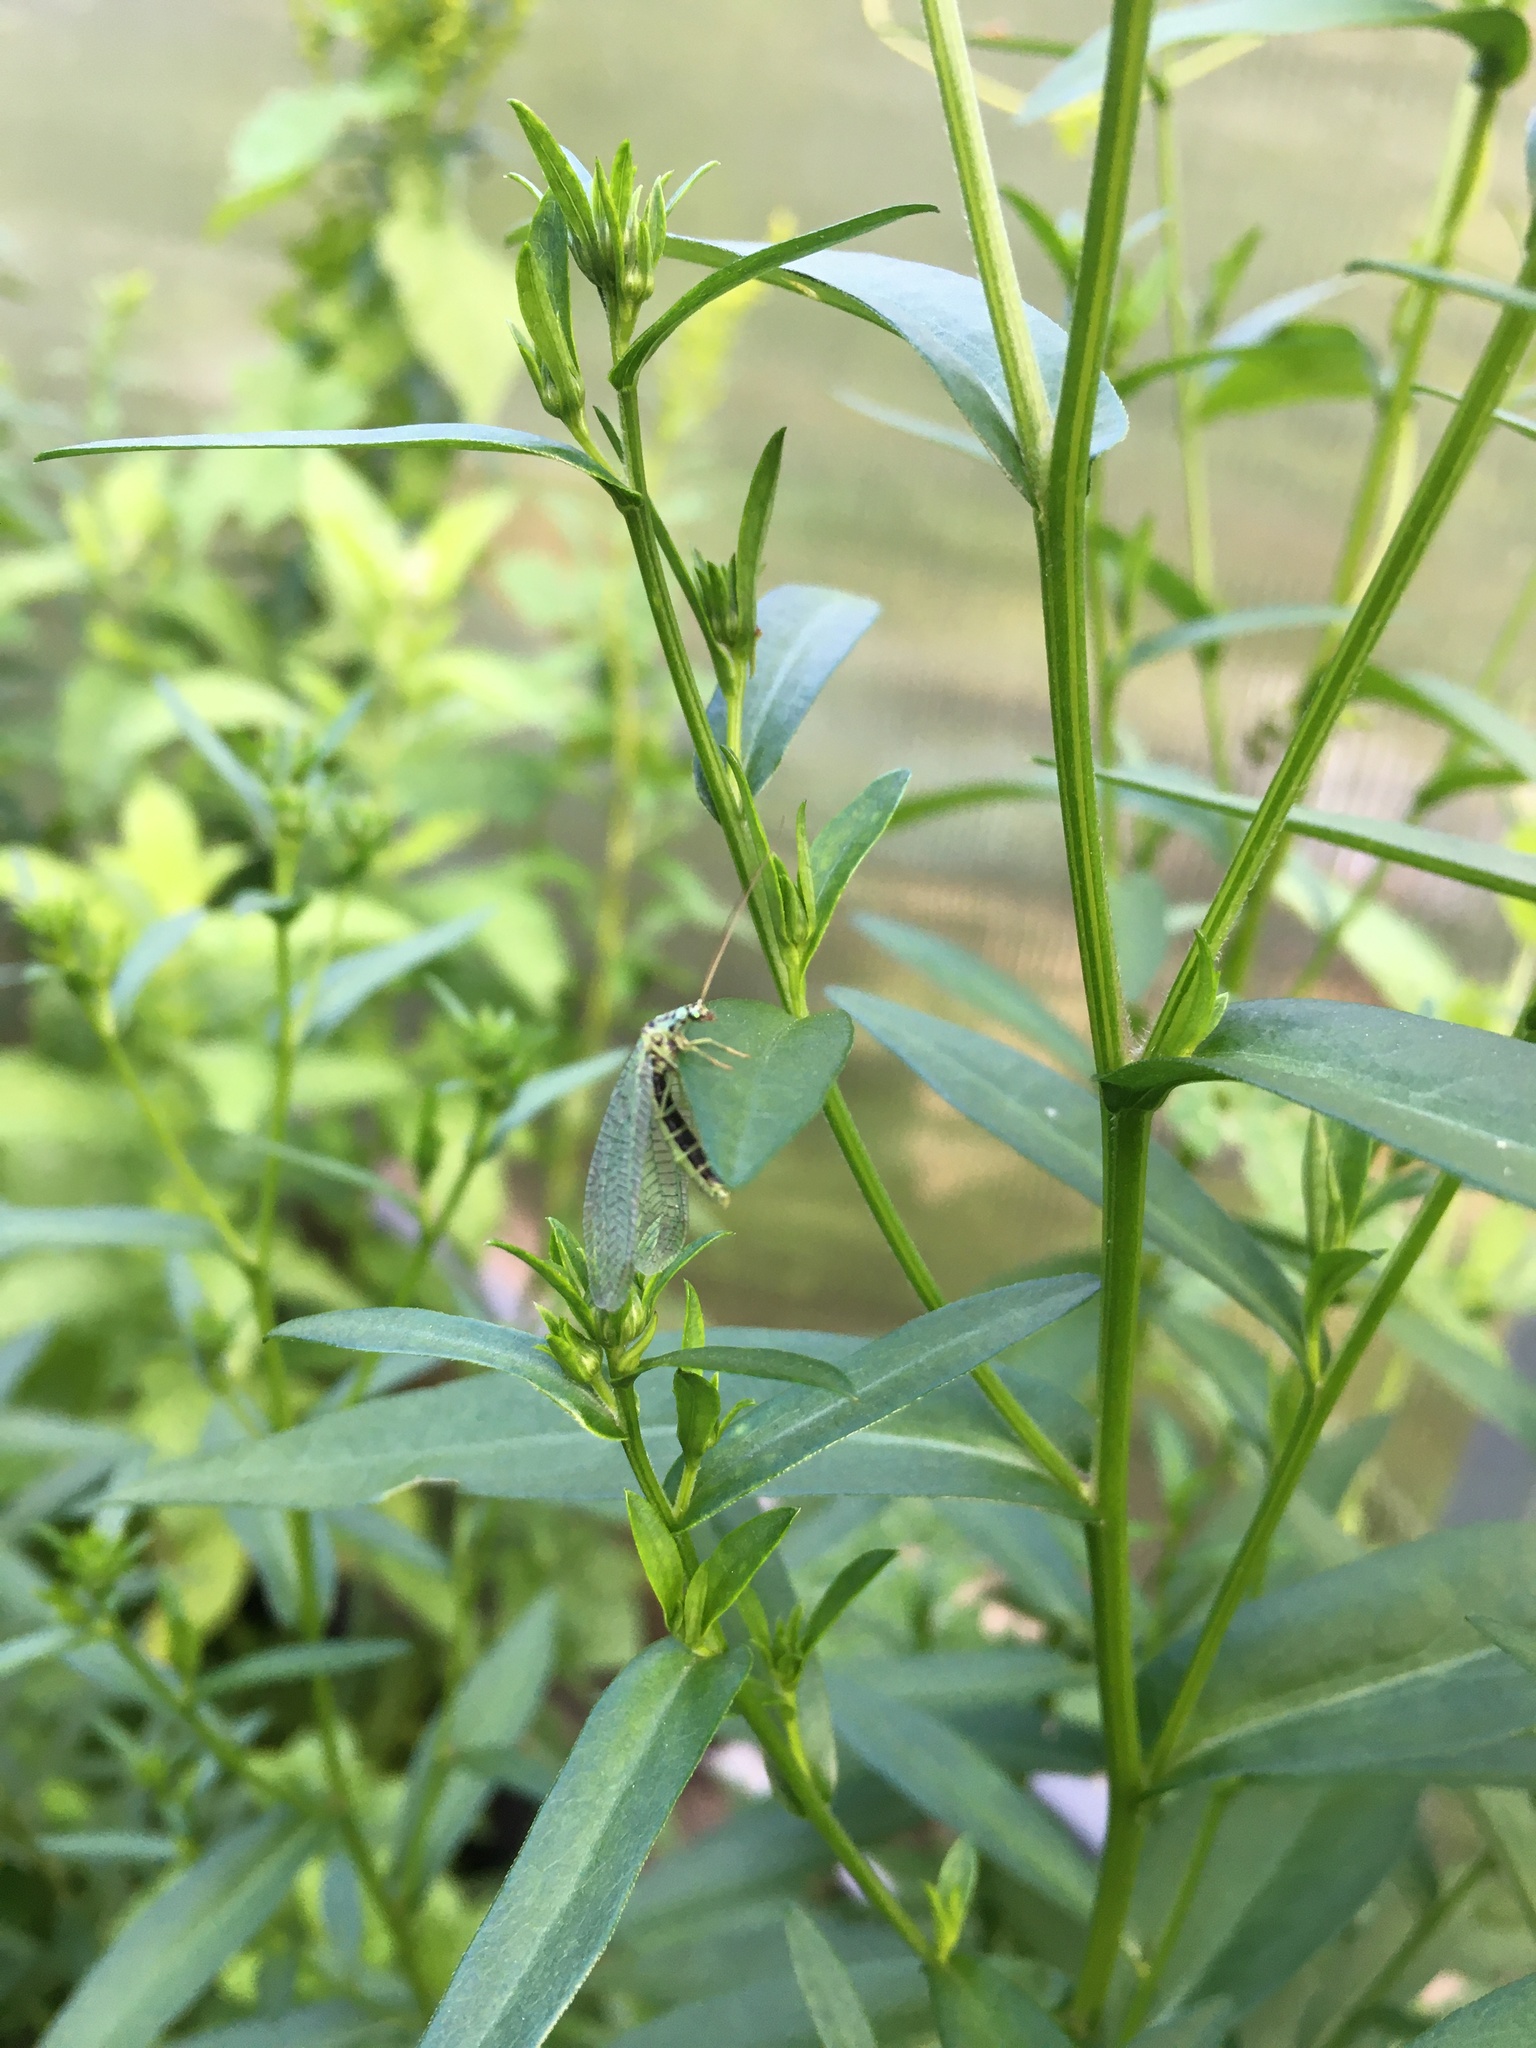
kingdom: Animalia
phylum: Arthropoda
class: Insecta
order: Neuroptera
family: Chrysopidae
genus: Chrysopa
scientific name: Chrysopa perla
